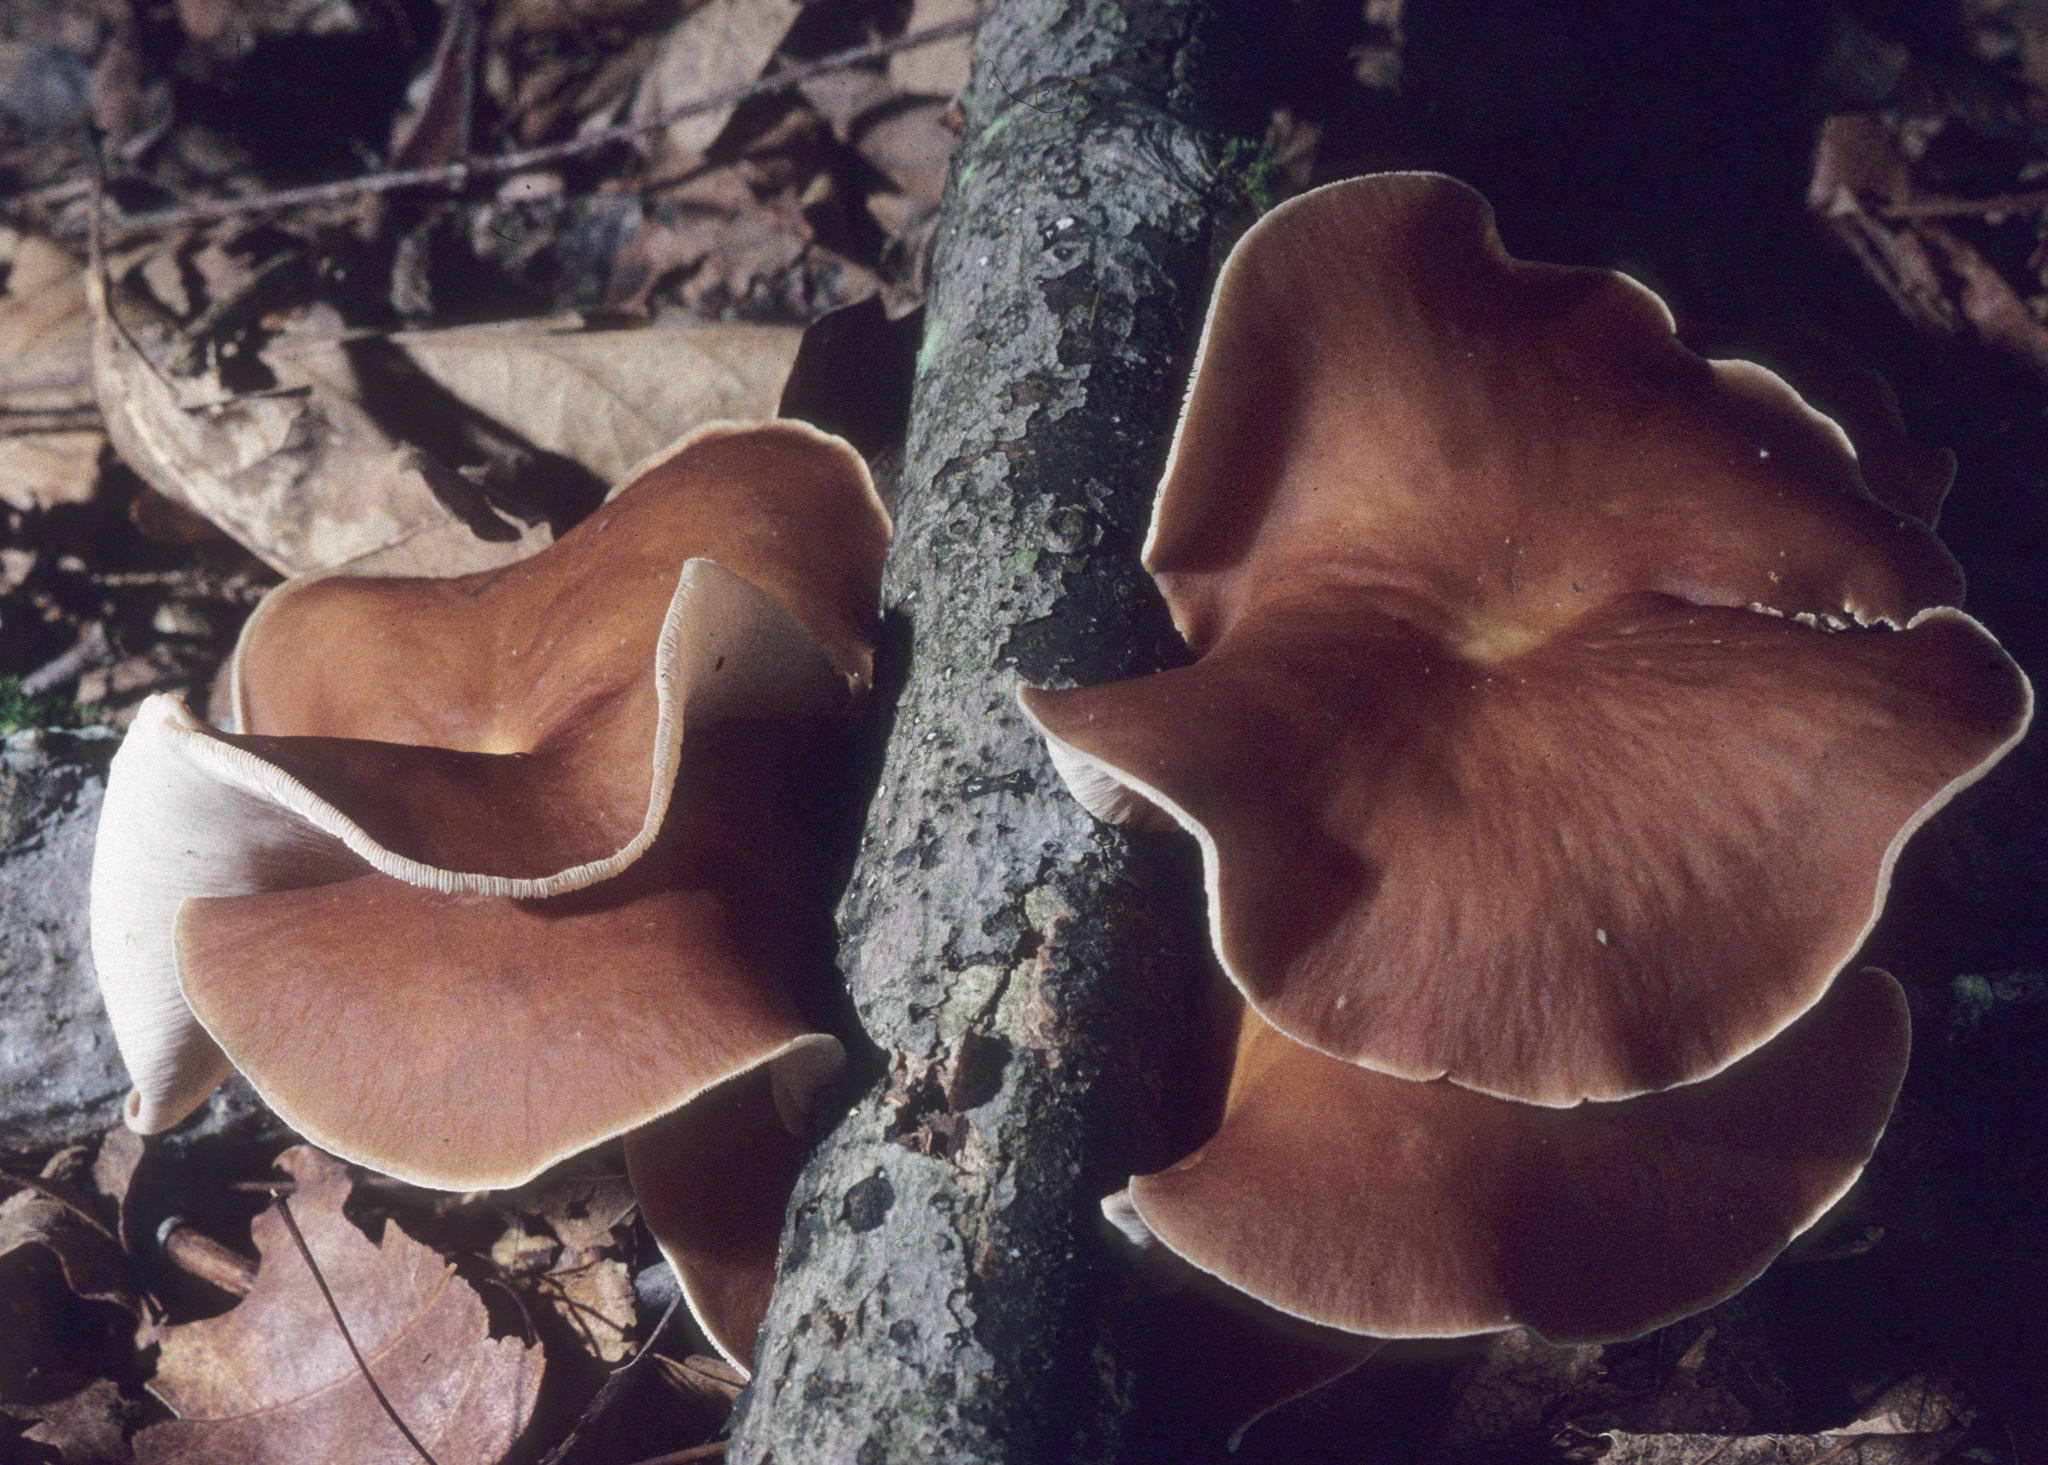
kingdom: Fungi
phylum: Basidiomycota
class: Agaricomycetes
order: Agaricales
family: Omphalotaceae
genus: Gymnopus
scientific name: Gymnopus dryophilus
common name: Penny top
